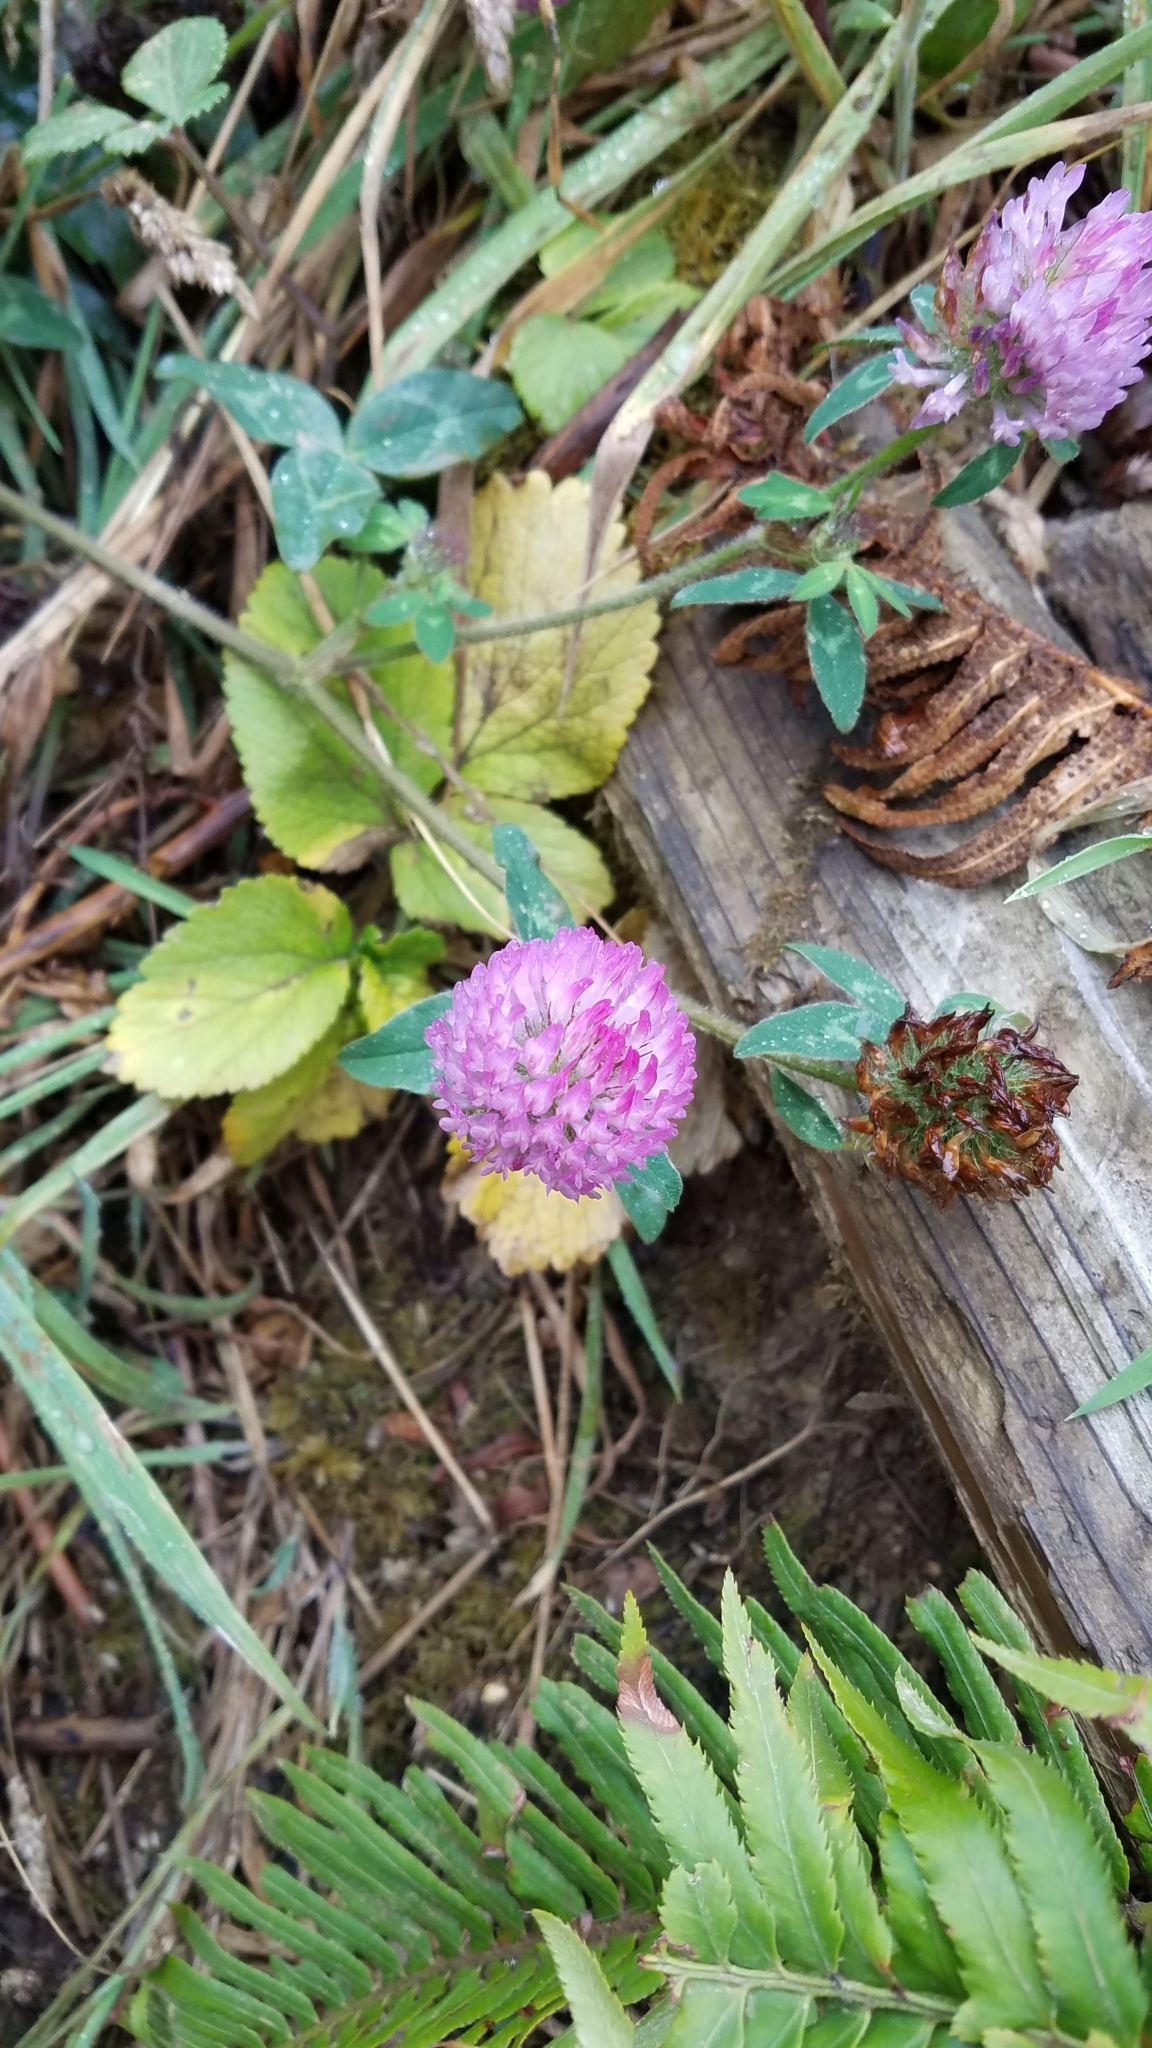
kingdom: Plantae
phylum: Tracheophyta
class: Magnoliopsida
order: Fabales
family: Fabaceae
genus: Trifolium
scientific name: Trifolium pratense
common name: Red clover
